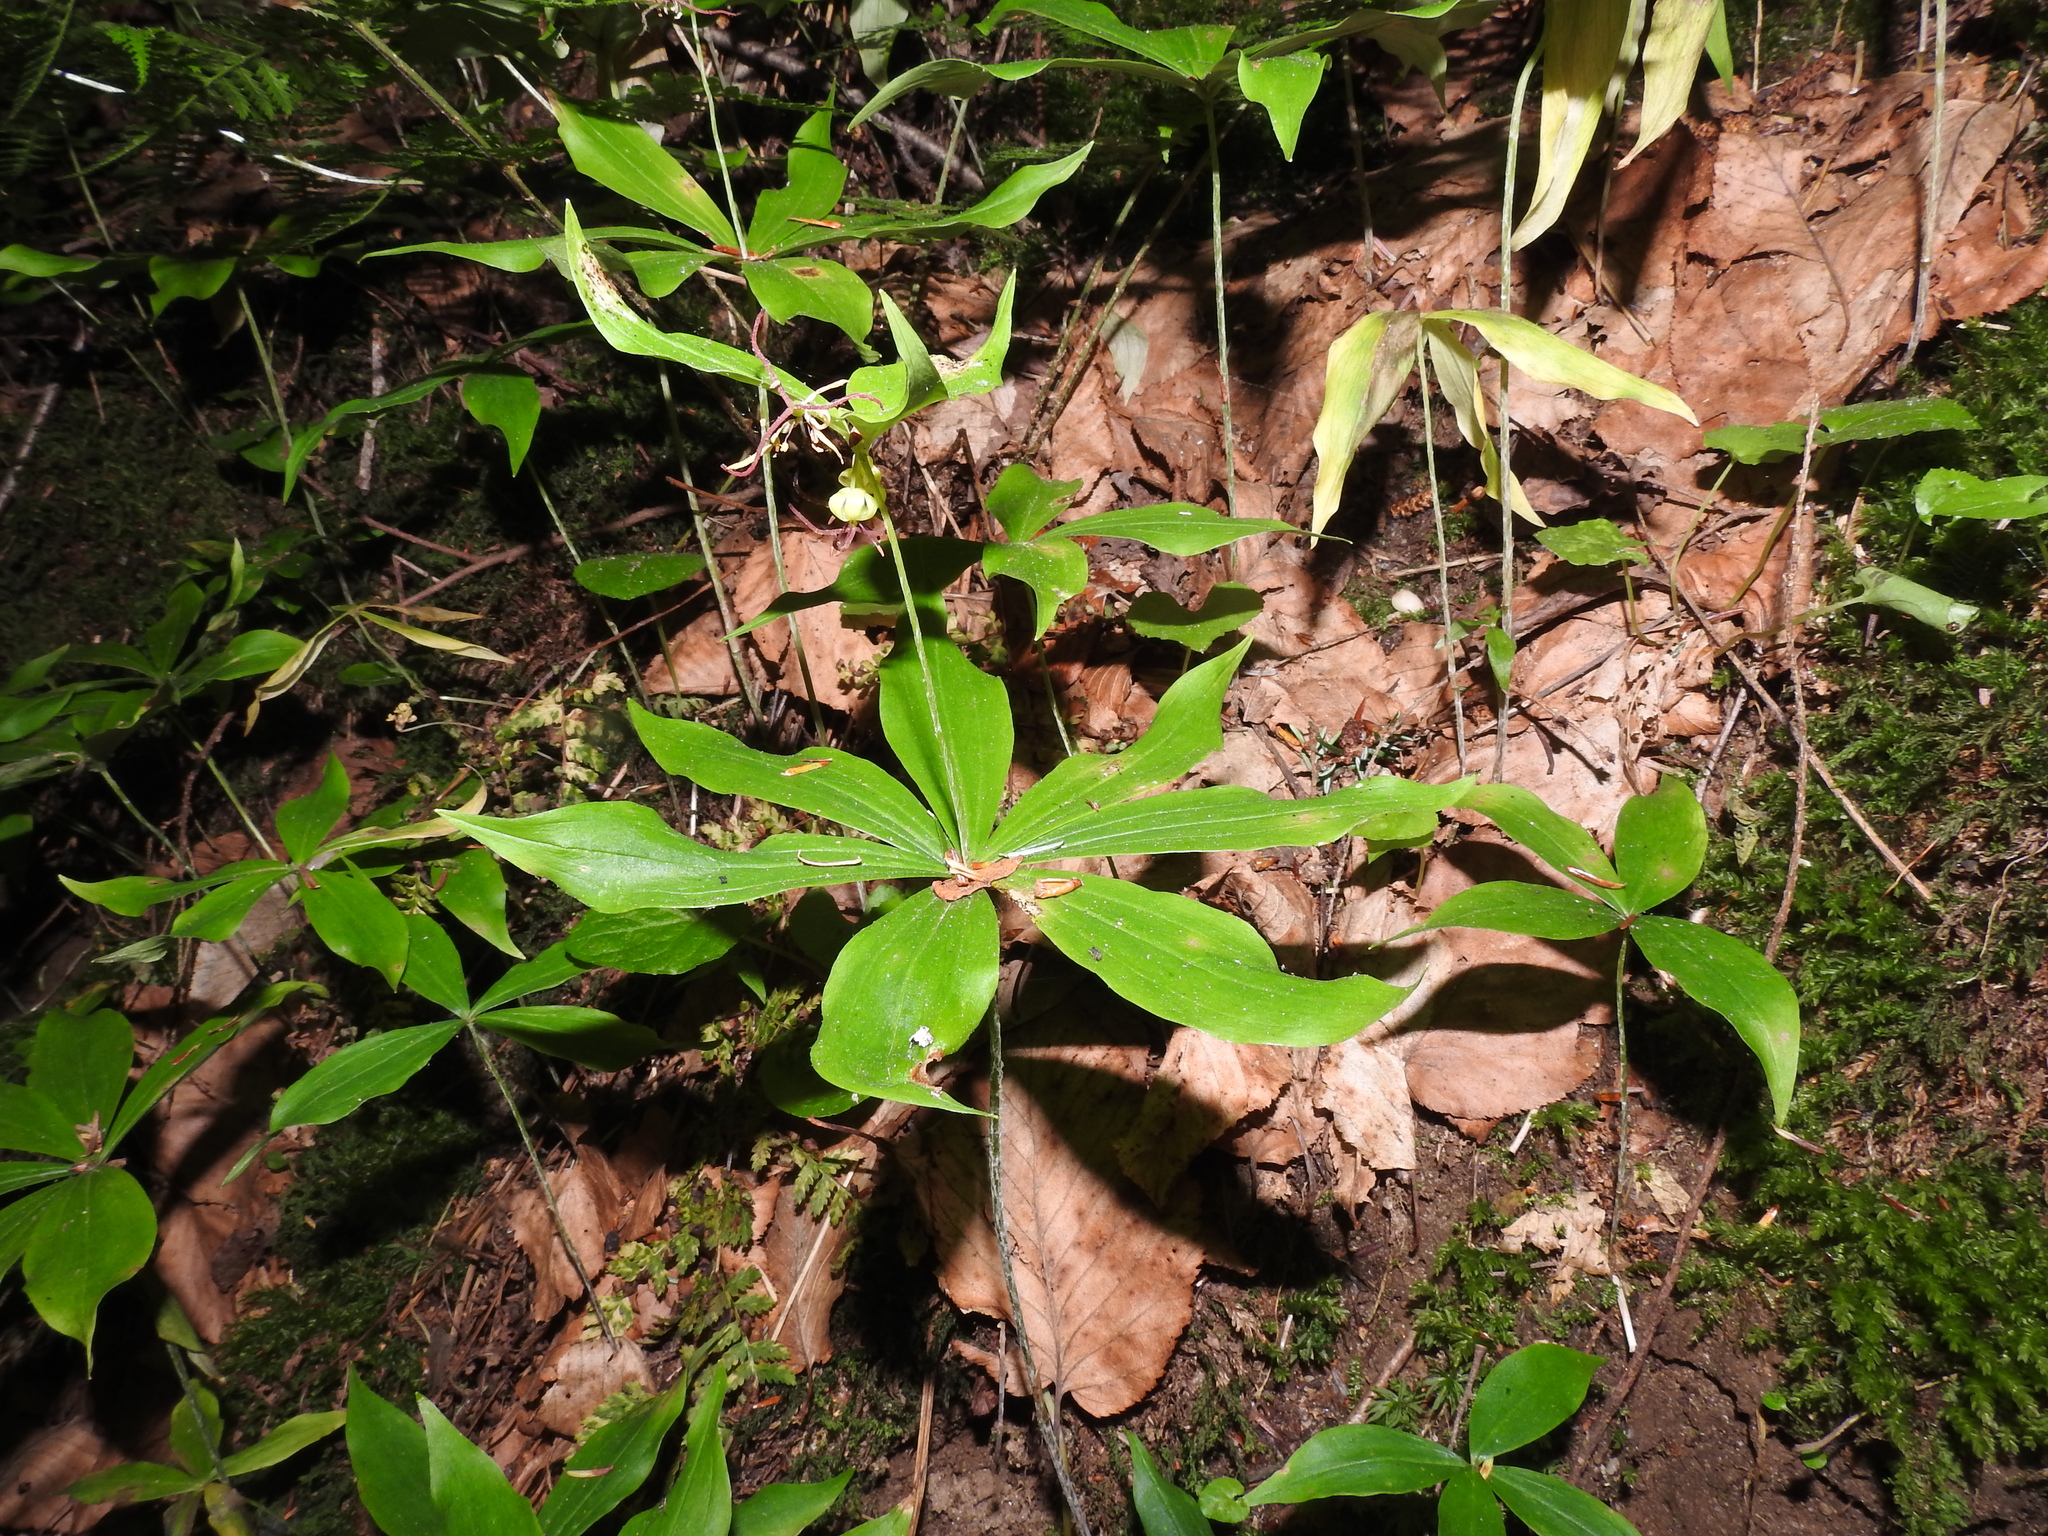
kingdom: Plantae
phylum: Tracheophyta
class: Liliopsida
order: Liliales
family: Liliaceae
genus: Medeola
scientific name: Medeola virginiana
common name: Indian cucumber-root
